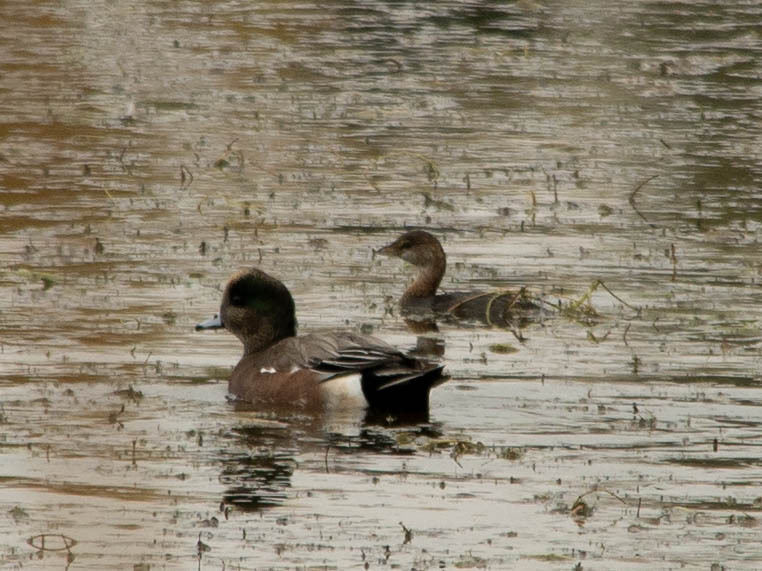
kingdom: Animalia
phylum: Chordata
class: Aves
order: Podicipediformes
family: Podicipedidae
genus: Podilymbus
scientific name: Podilymbus podiceps
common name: Pied-billed grebe
